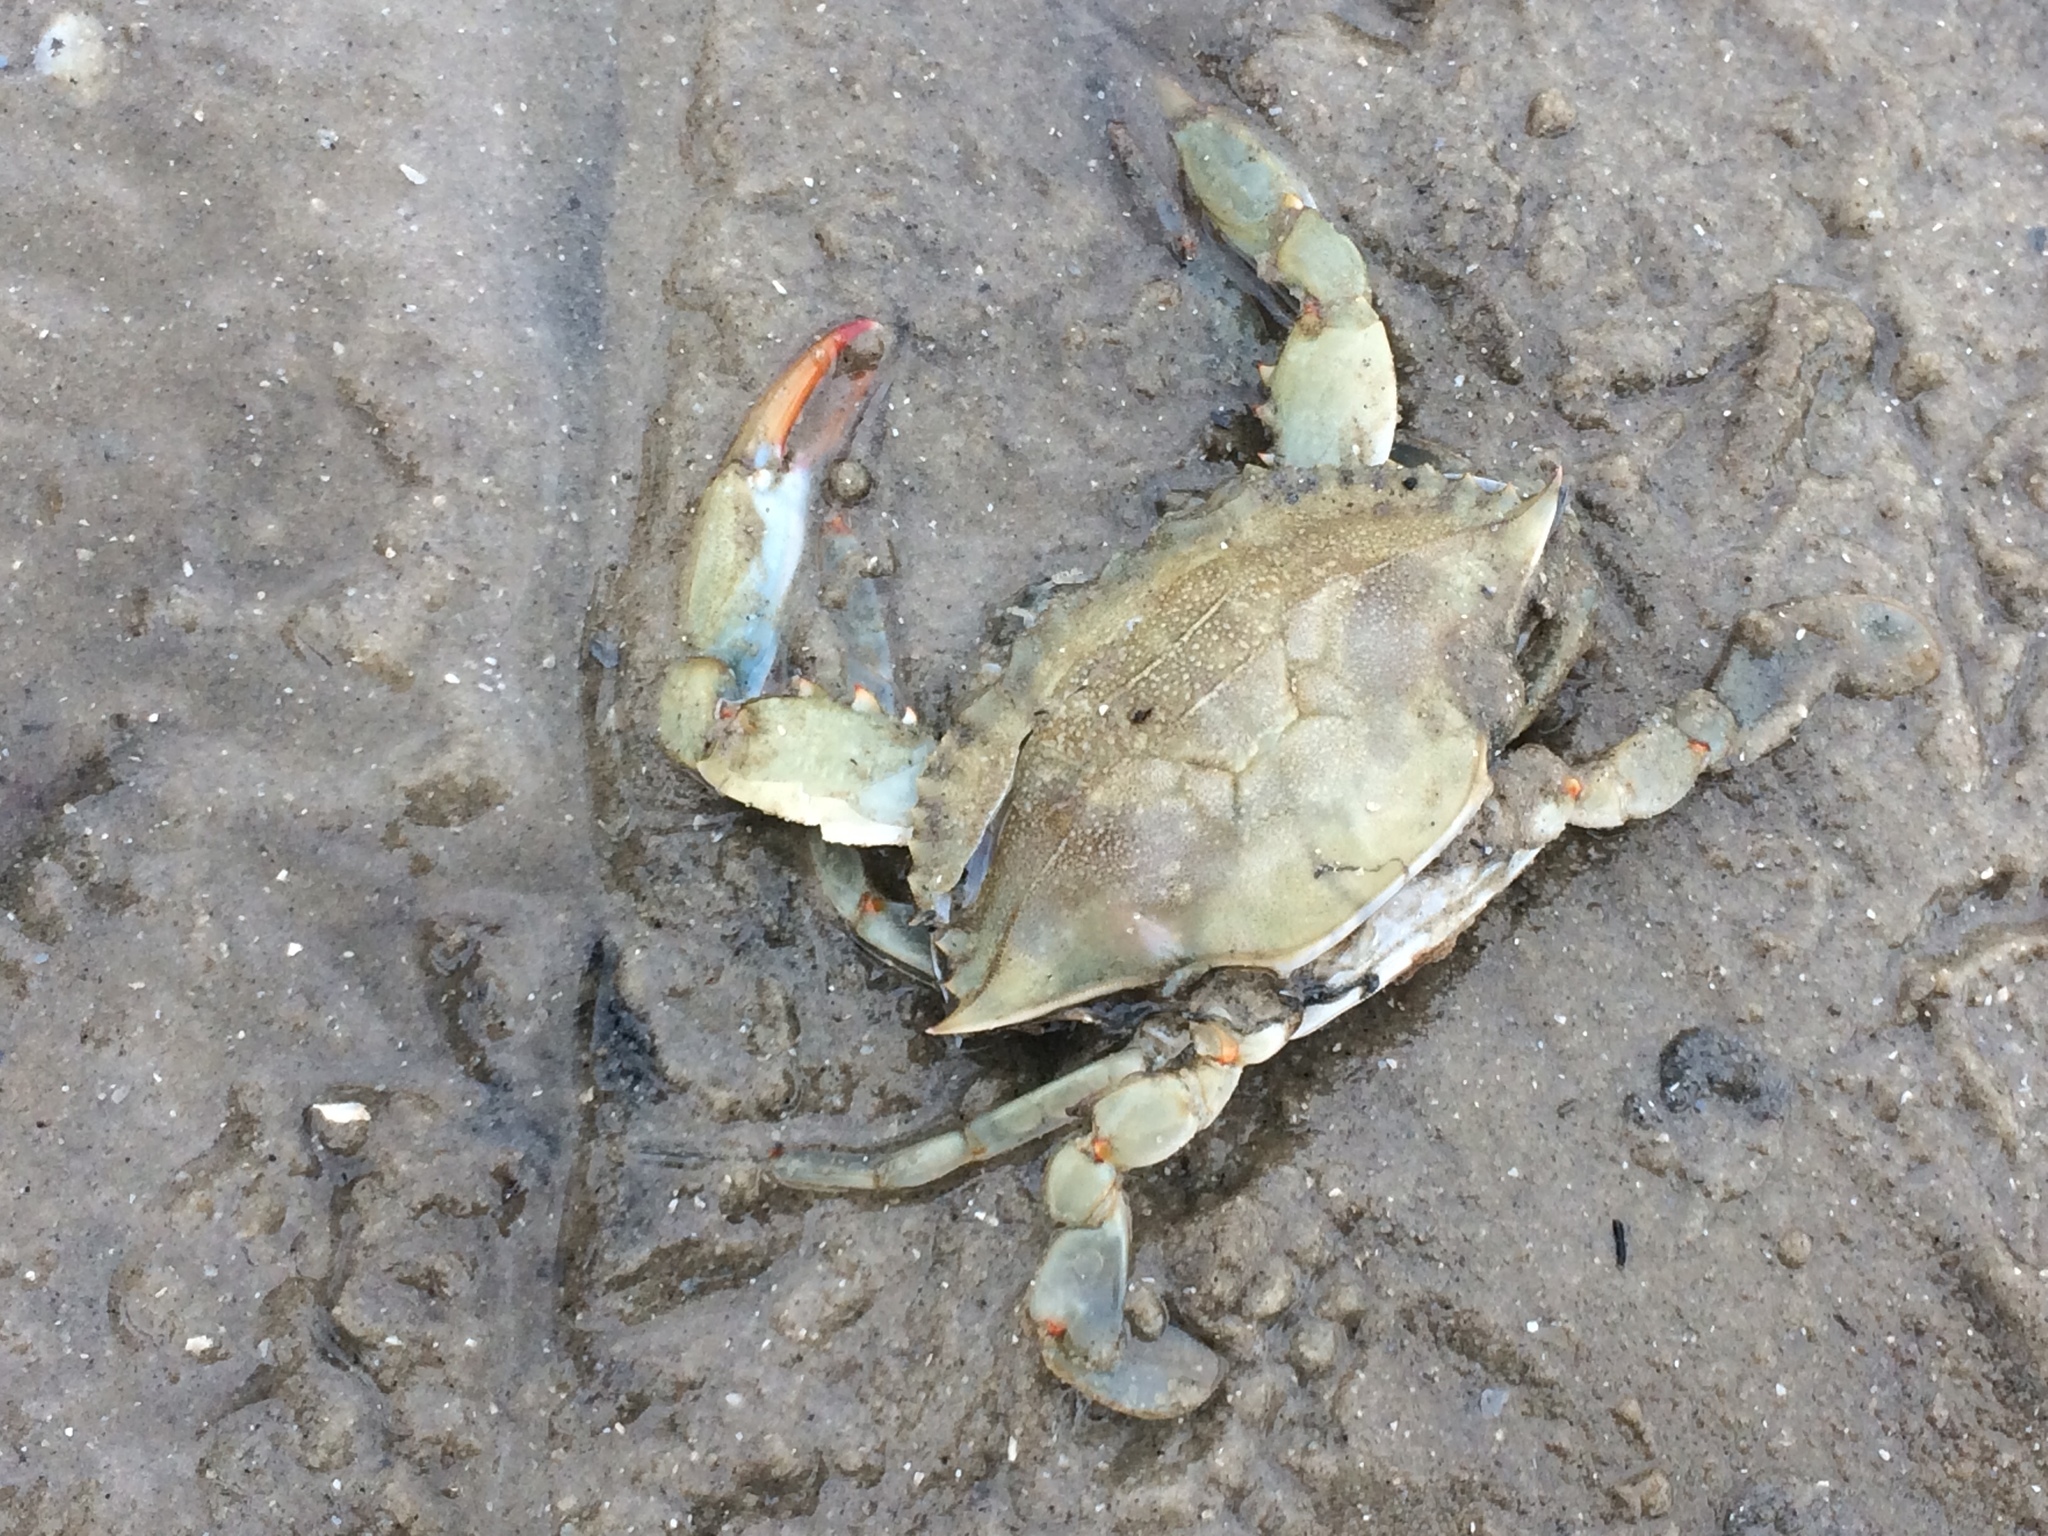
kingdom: Animalia
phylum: Arthropoda
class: Malacostraca
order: Decapoda
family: Portunidae
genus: Callinectes
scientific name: Callinectes sapidus
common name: Blue crab
